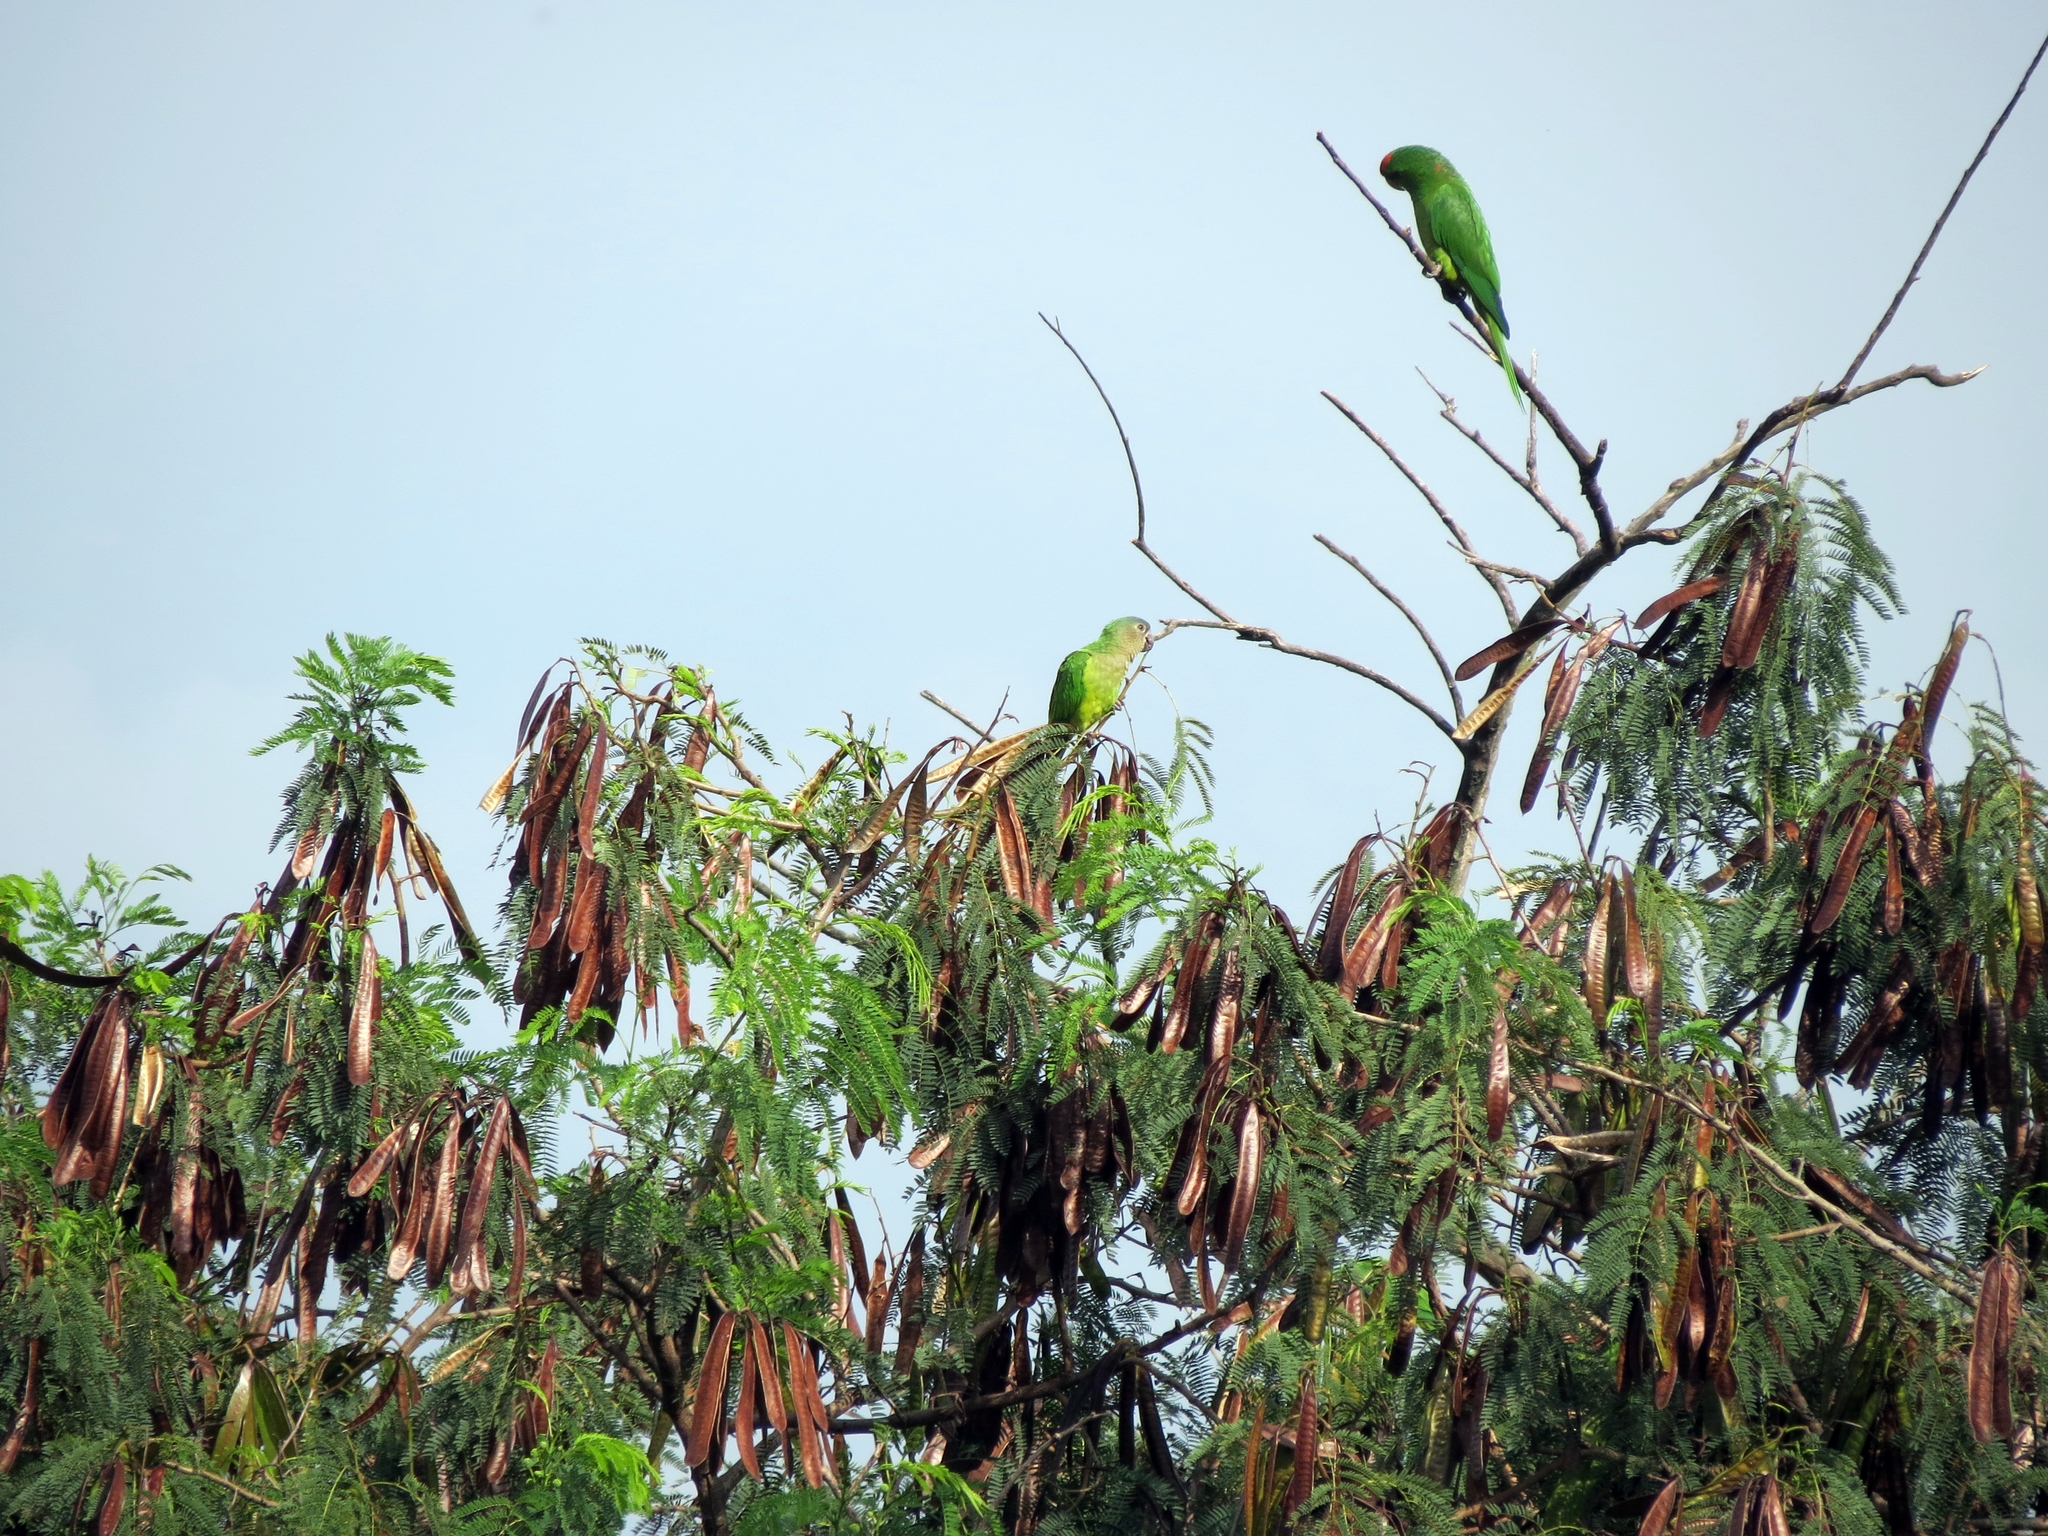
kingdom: Animalia
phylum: Chordata
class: Aves
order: Psittaciformes
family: Psittacidae
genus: Aratinga
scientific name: Aratinga wagleri
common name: Scarlet-fronted parakeet
